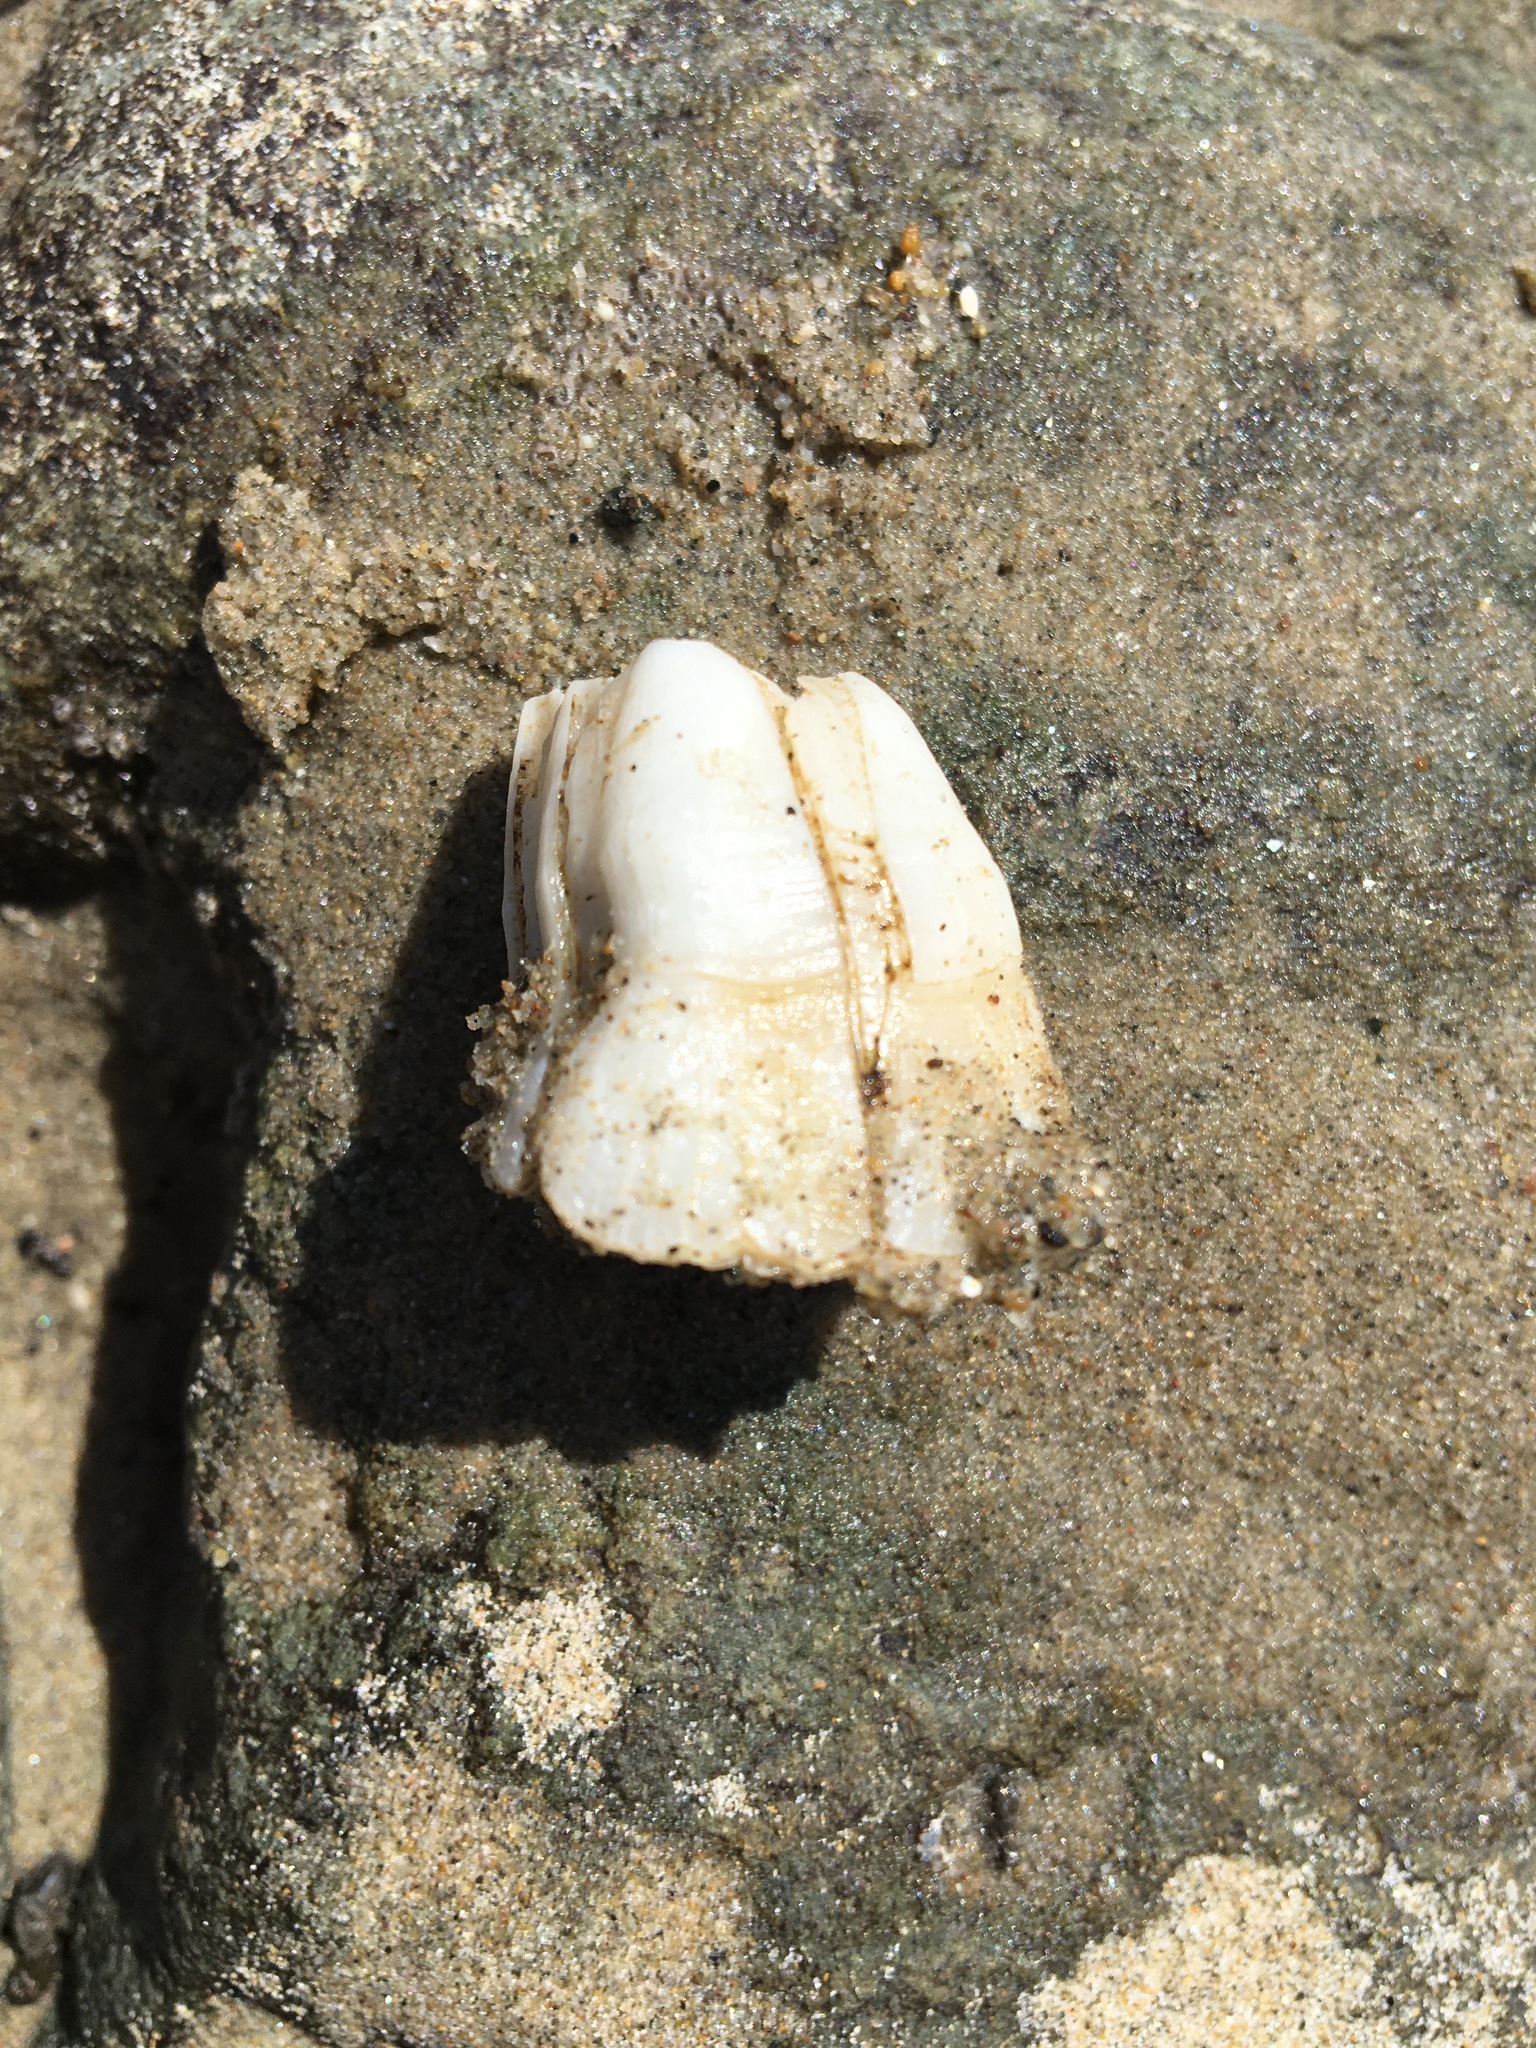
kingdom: Animalia
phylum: Arthropoda
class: Maxillopoda
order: Sessilia
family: Balanidae
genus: Amphibalanus
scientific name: Amphibalanus eburneus
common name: Ivory barnacle
